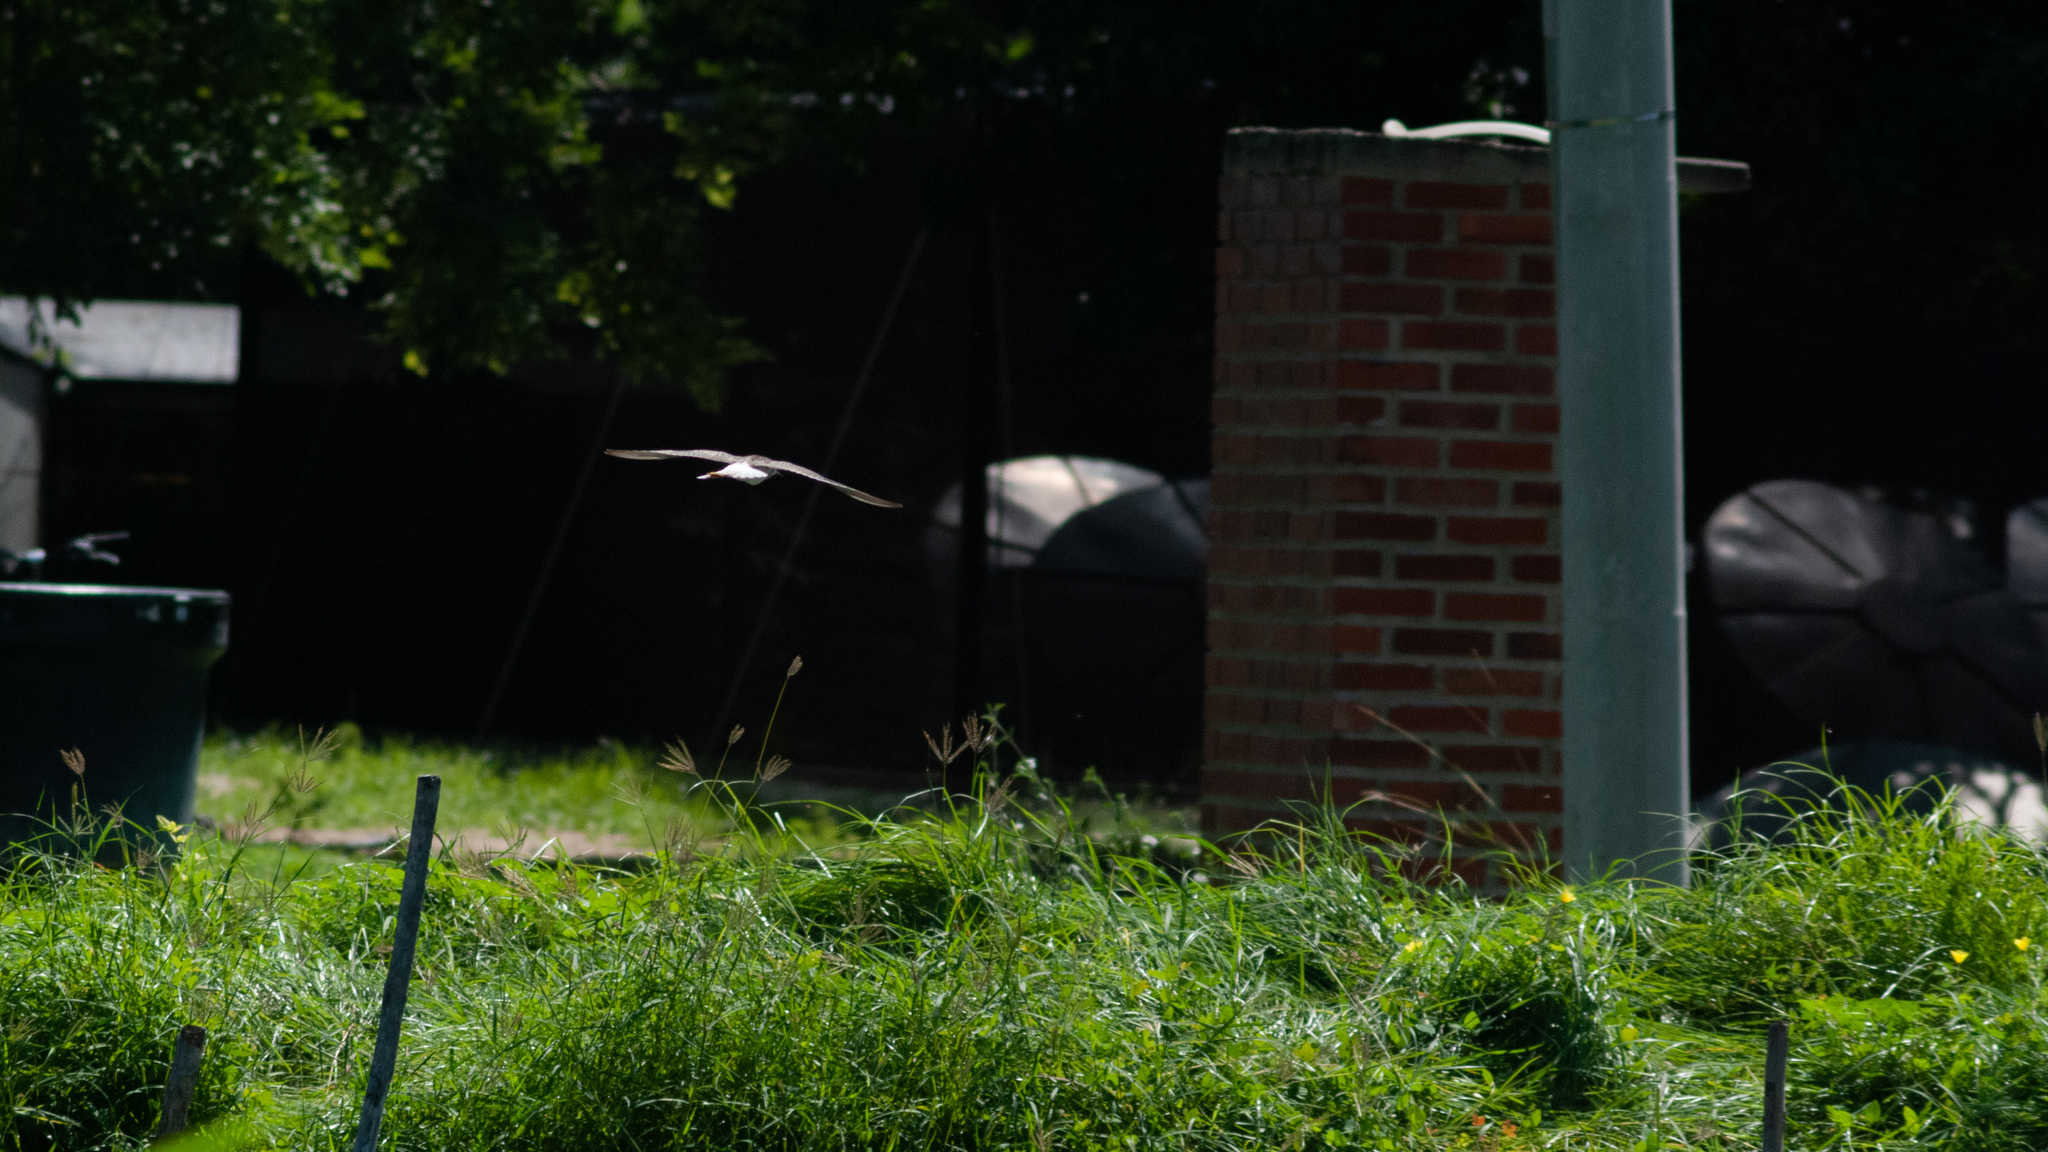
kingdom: Animalia
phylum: Chordata
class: Aves
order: Charadriiformes
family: Scolopacidae
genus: Tringa
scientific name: Tringa solitaria
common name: Solitary sandpiper
